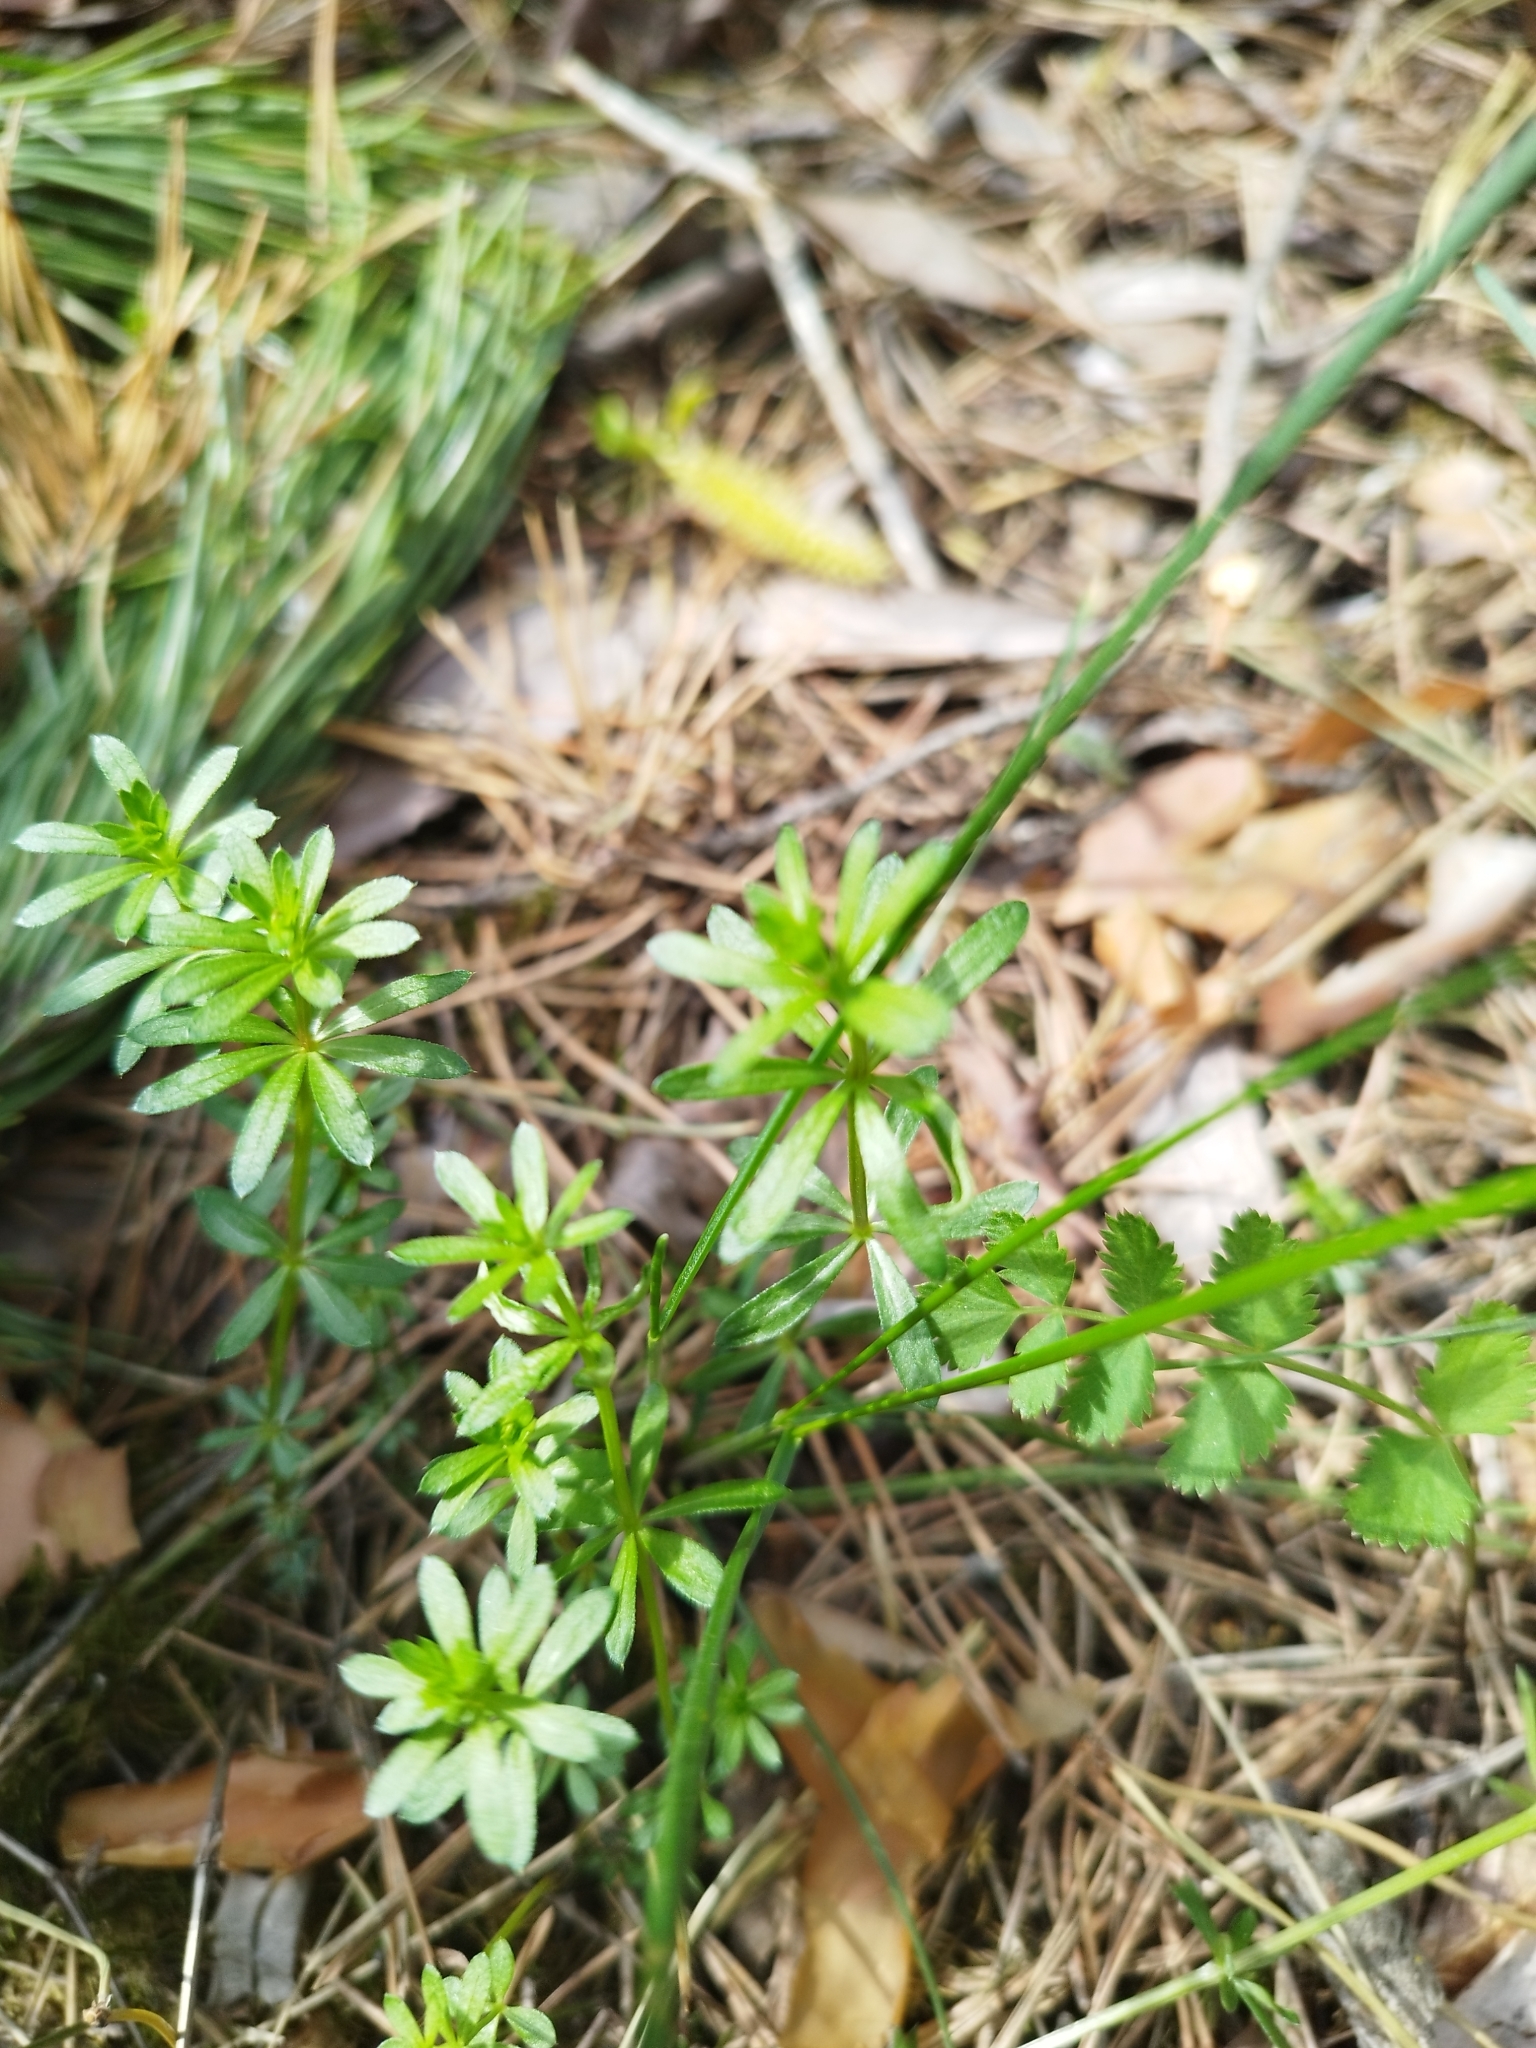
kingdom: Plantae
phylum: Tracheophyta
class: Magnoliopsida
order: Gentianales
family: Rubiaceae
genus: Galium
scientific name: Galium mollugo
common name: Hedge bedstraw
